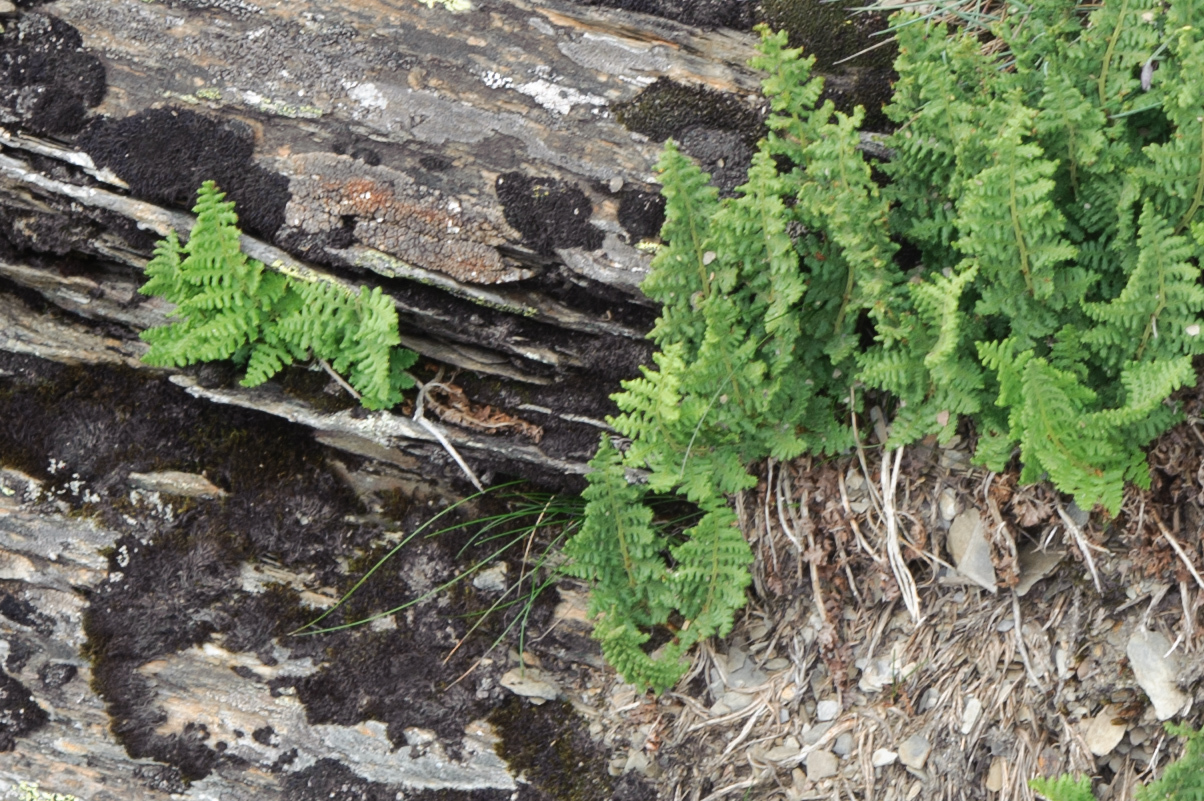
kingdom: Plantae
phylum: Tracheophyta
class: Polypodiopsida
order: Polypodiales
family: Dryopteridaceae
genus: Dryopteris
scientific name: Dryopteris alpestris
